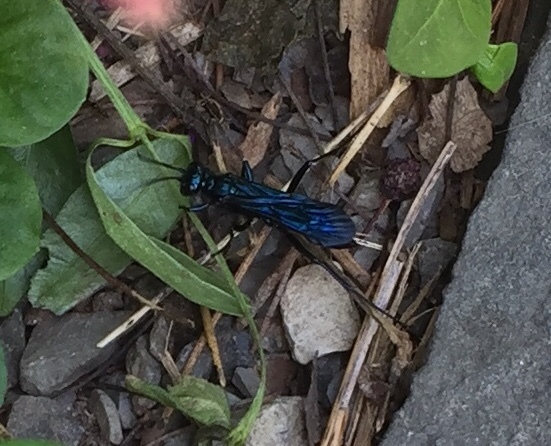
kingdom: Animalia
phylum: Arthropoda
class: Insecta
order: Hymenoptera
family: Sphecidae
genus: Chalybion
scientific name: Chalybion californicum
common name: Mud dauber
